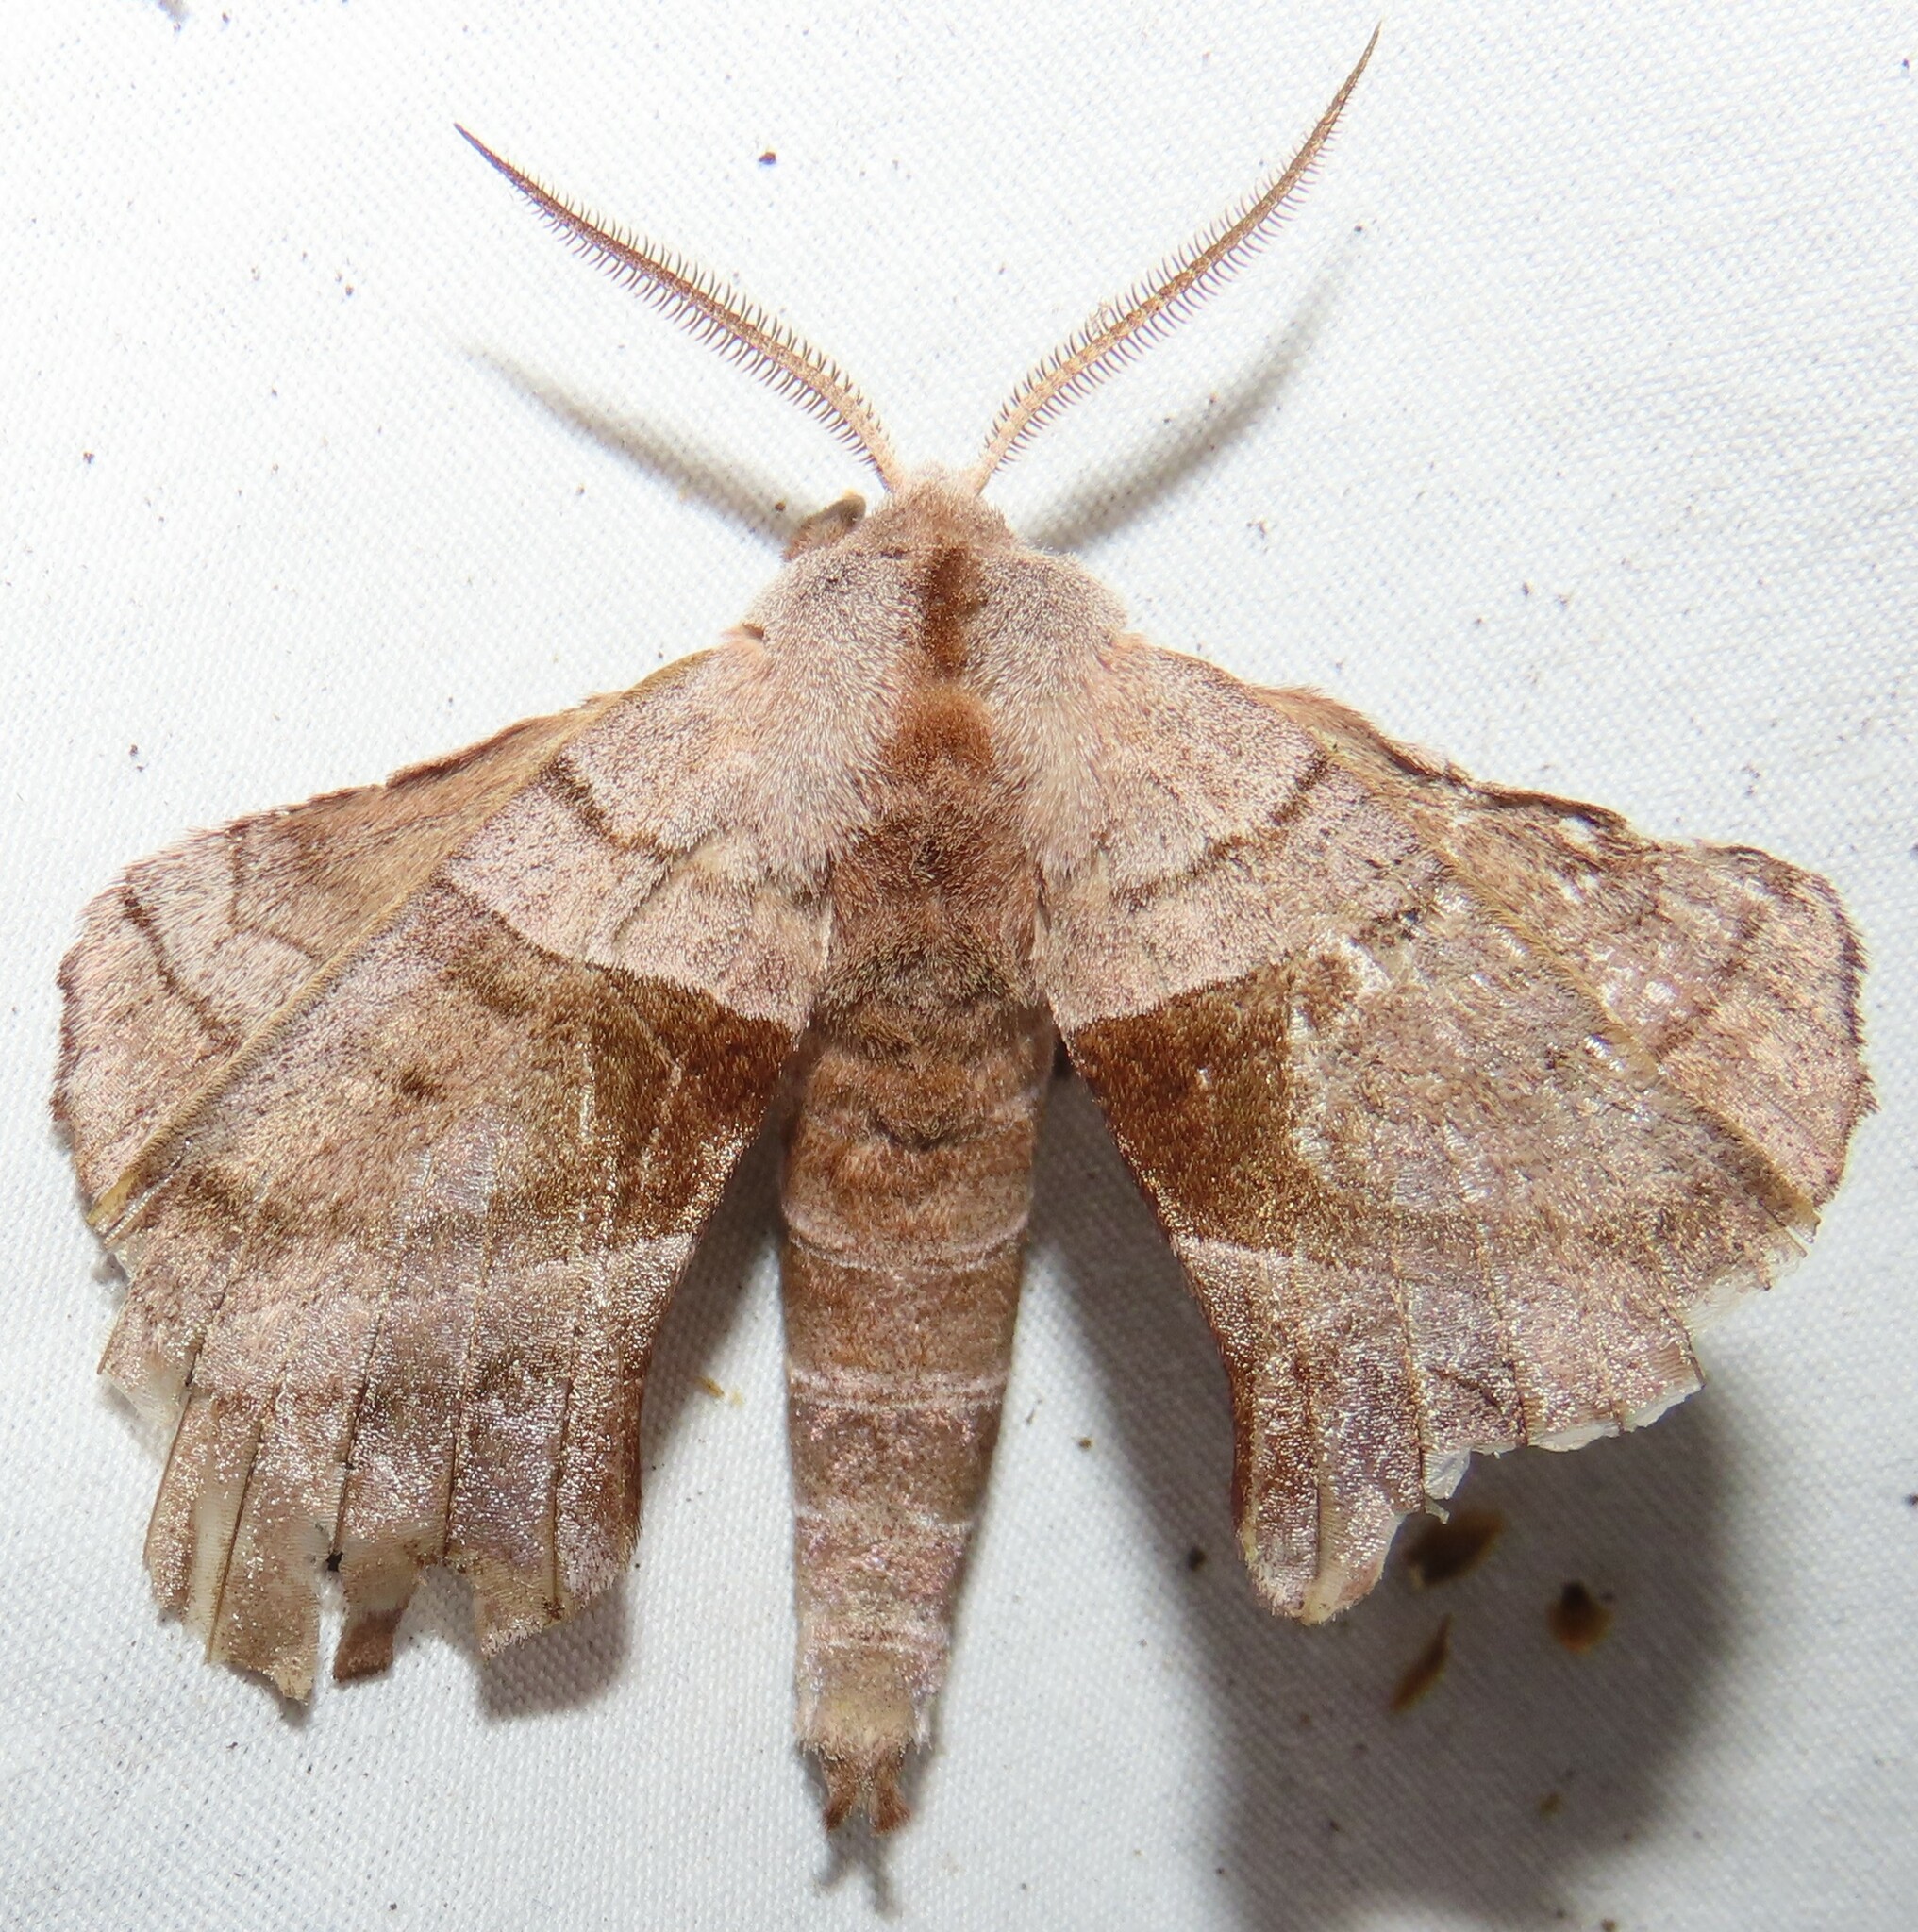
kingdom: Animalia
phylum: Arthropoda
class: Insecta
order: Lepidoptera
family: Sphingidae
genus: Amorpha
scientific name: Amorpha juglandis
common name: Walnut sphinx
